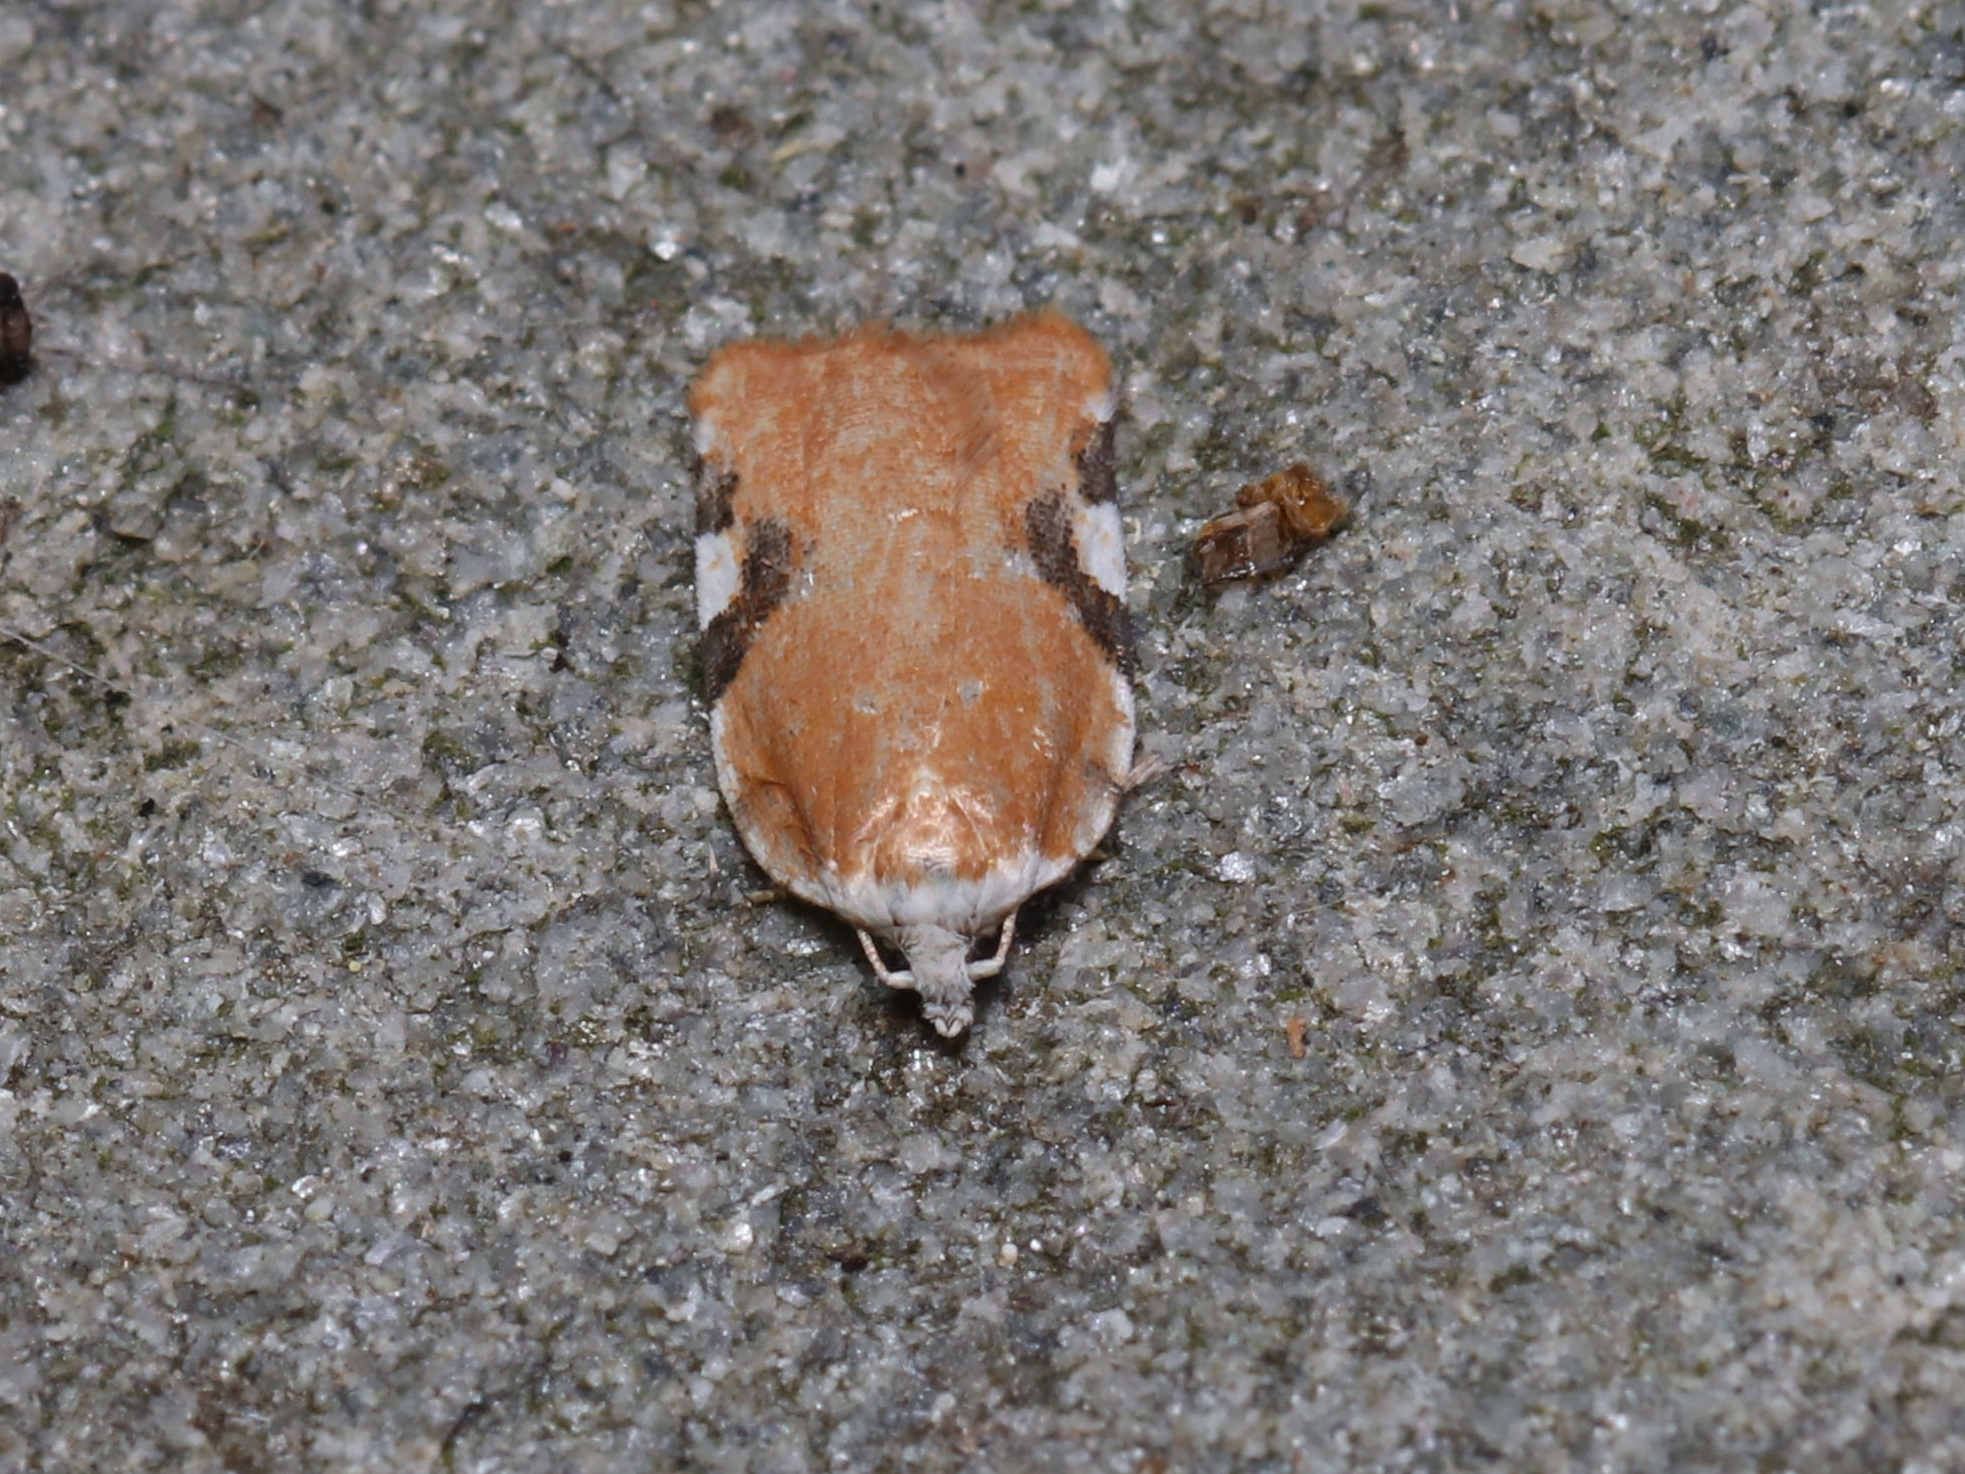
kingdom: Animalia
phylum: Arthropoda
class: Insecta
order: Lepidoptera
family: Tortricidae
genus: Acleris
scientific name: Acleris cervinana
